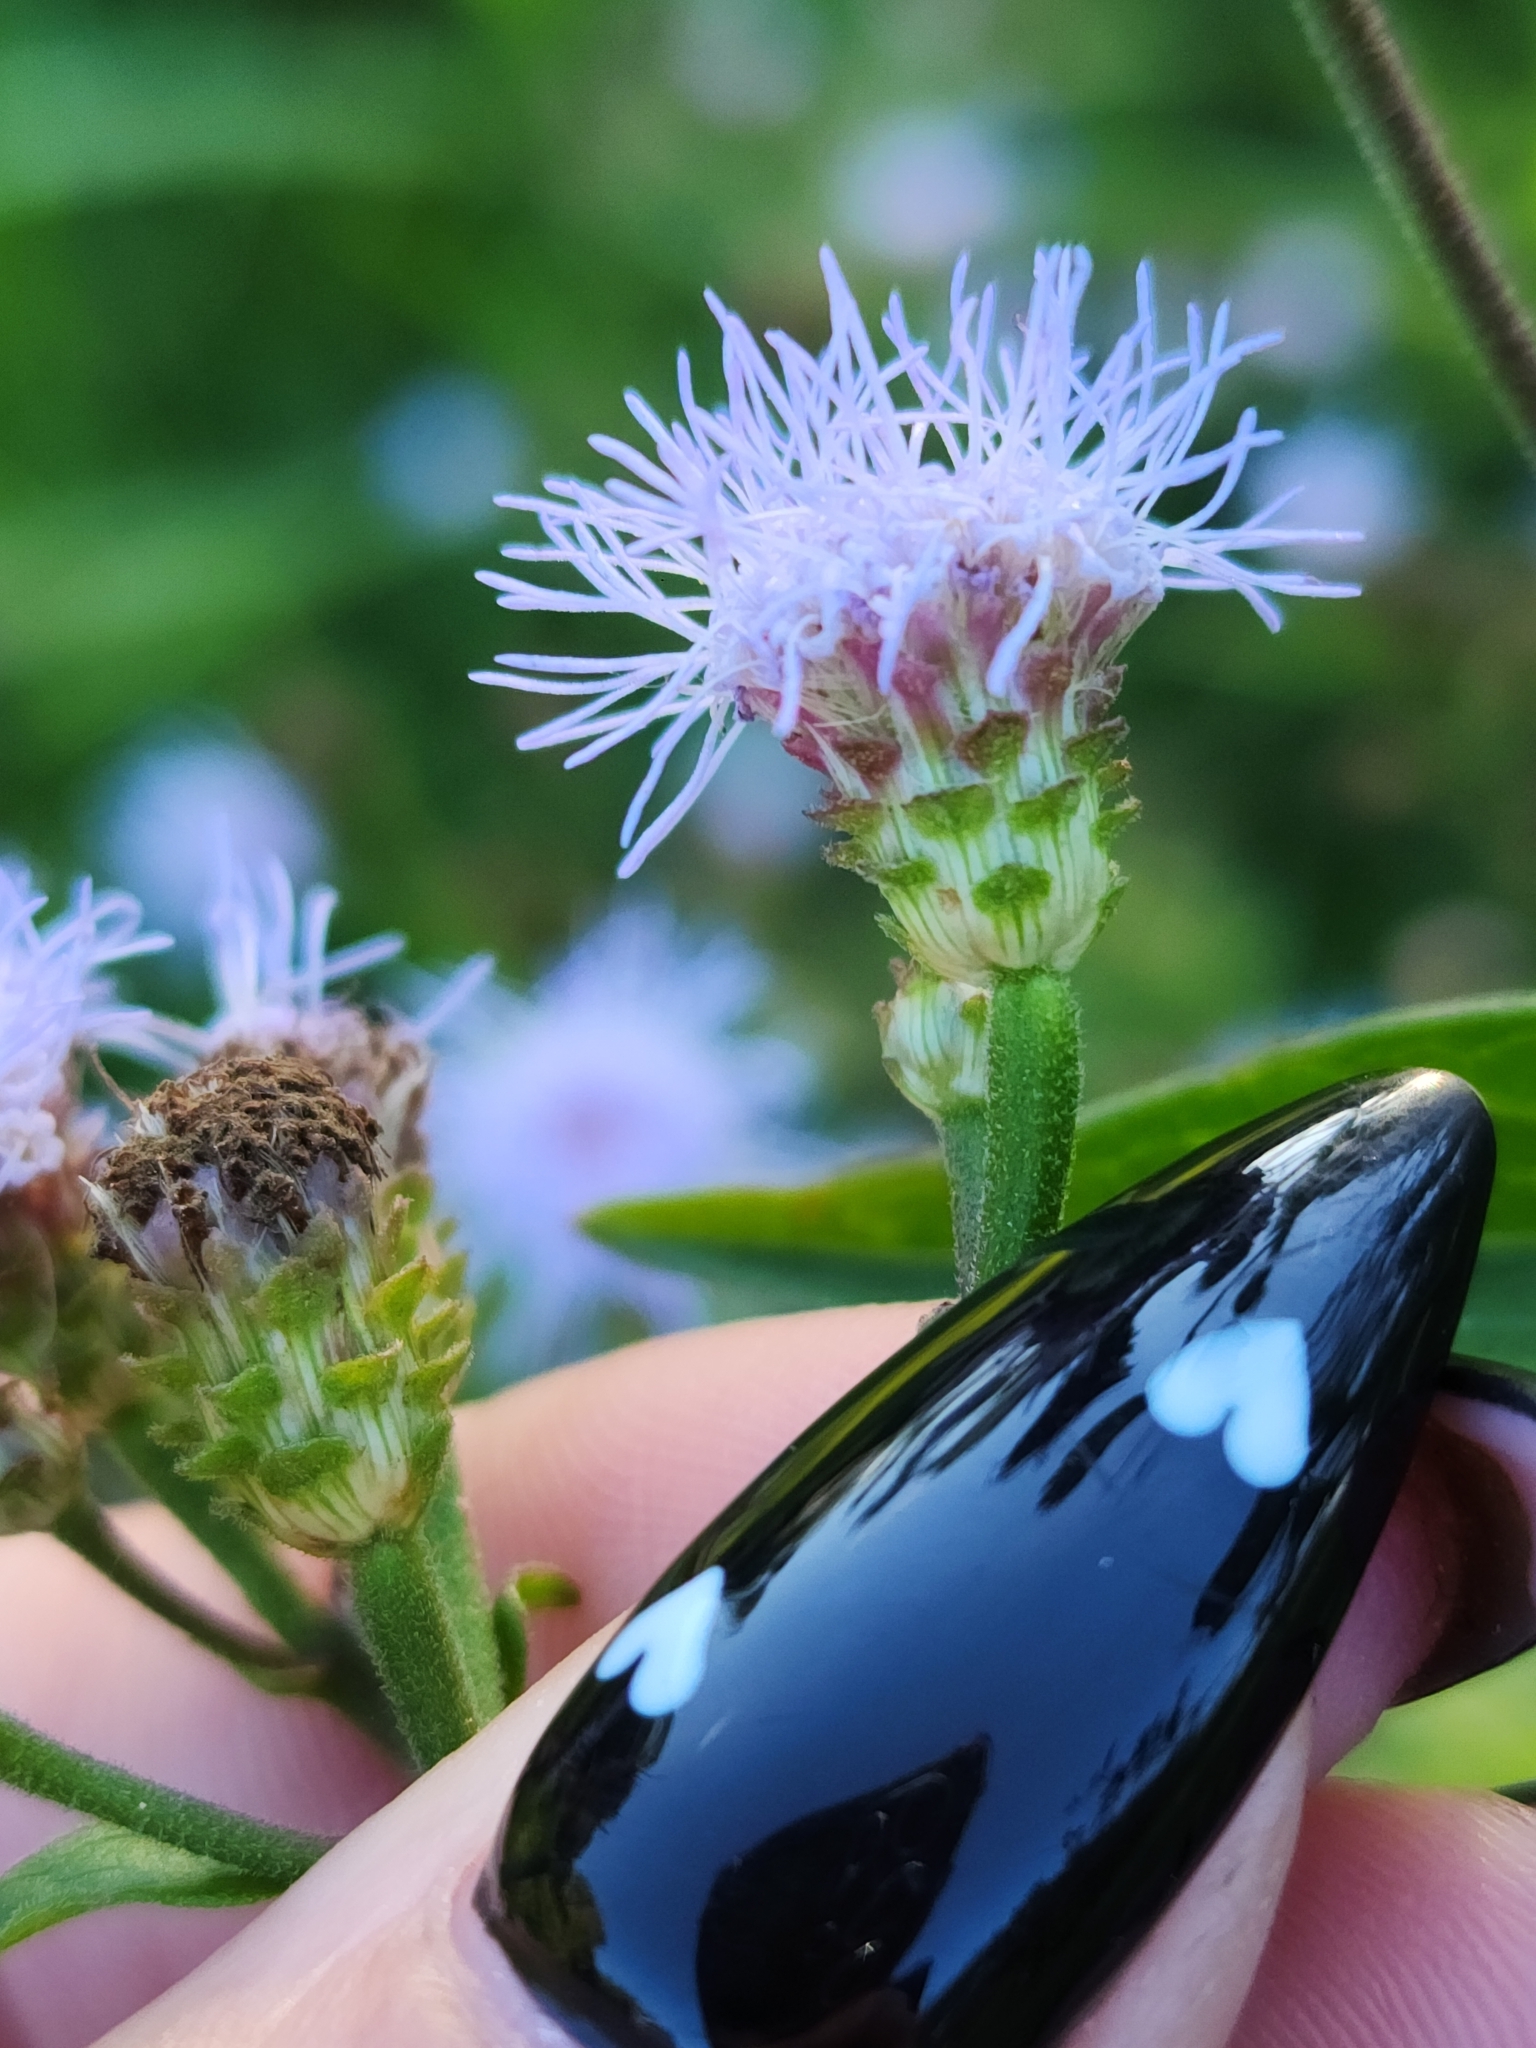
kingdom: Plantae
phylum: Tracheophyta
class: Magnoliopsida
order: Asterales
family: Asteraceae
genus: Chromolaena
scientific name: Chromolaena squarrosoramosa
